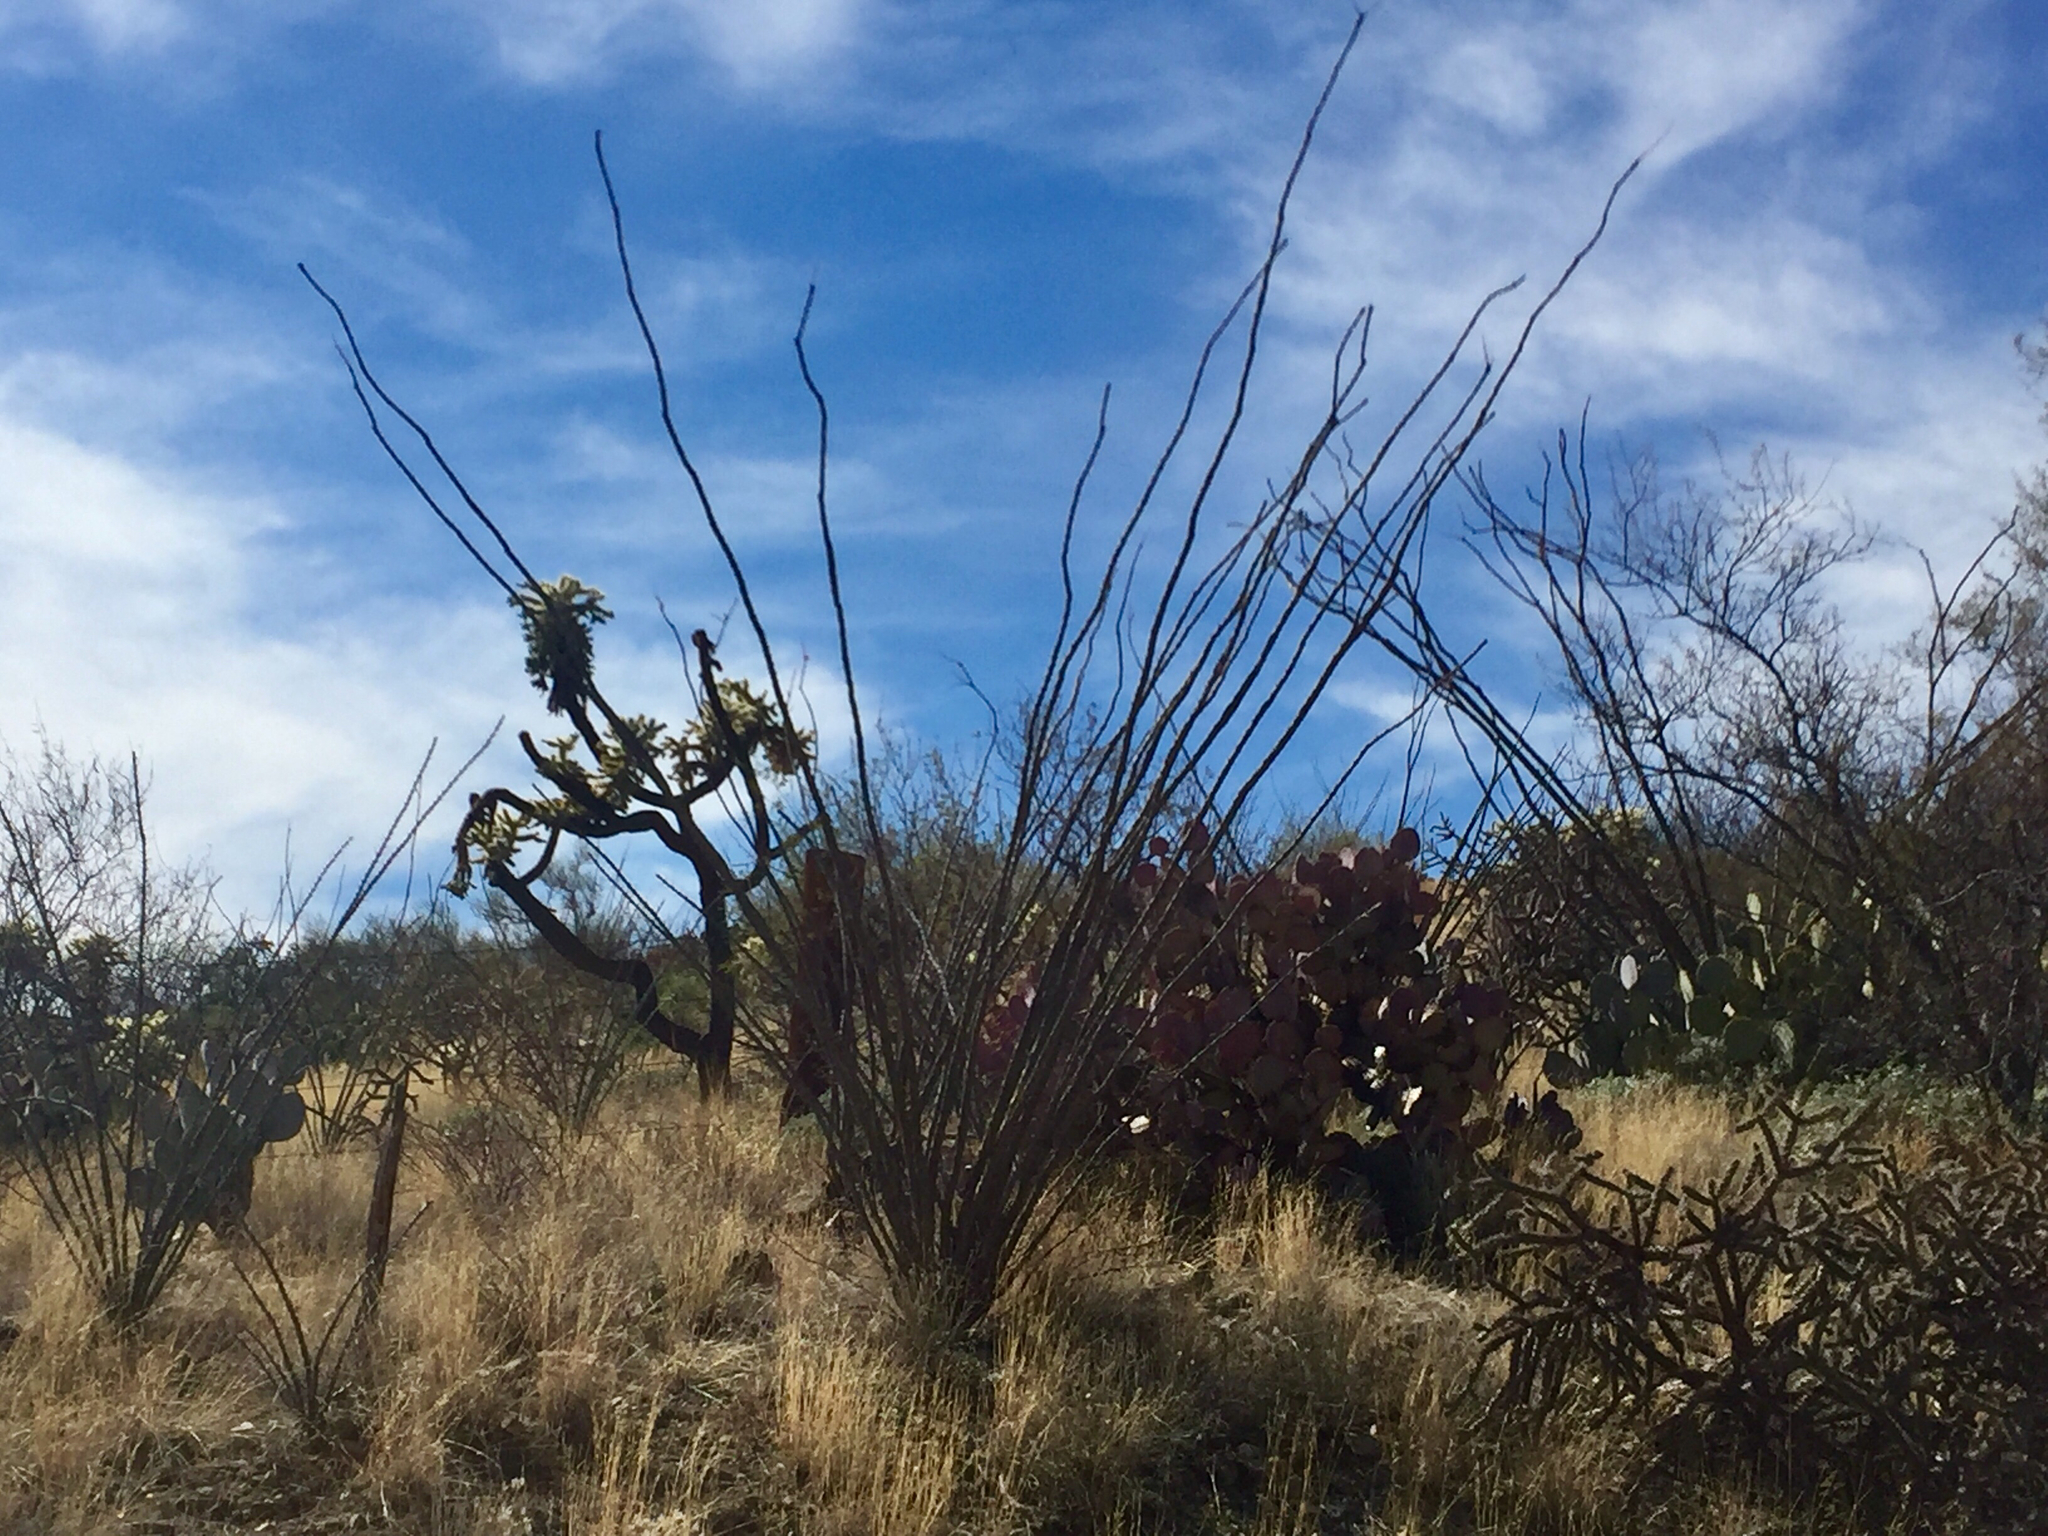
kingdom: Plantae
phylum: Tracheophyta
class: Magnoliopsida
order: Ericales
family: Fouquieriaceae
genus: Fouquieria
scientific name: Fouquieria splendens
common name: Vine-cactus
